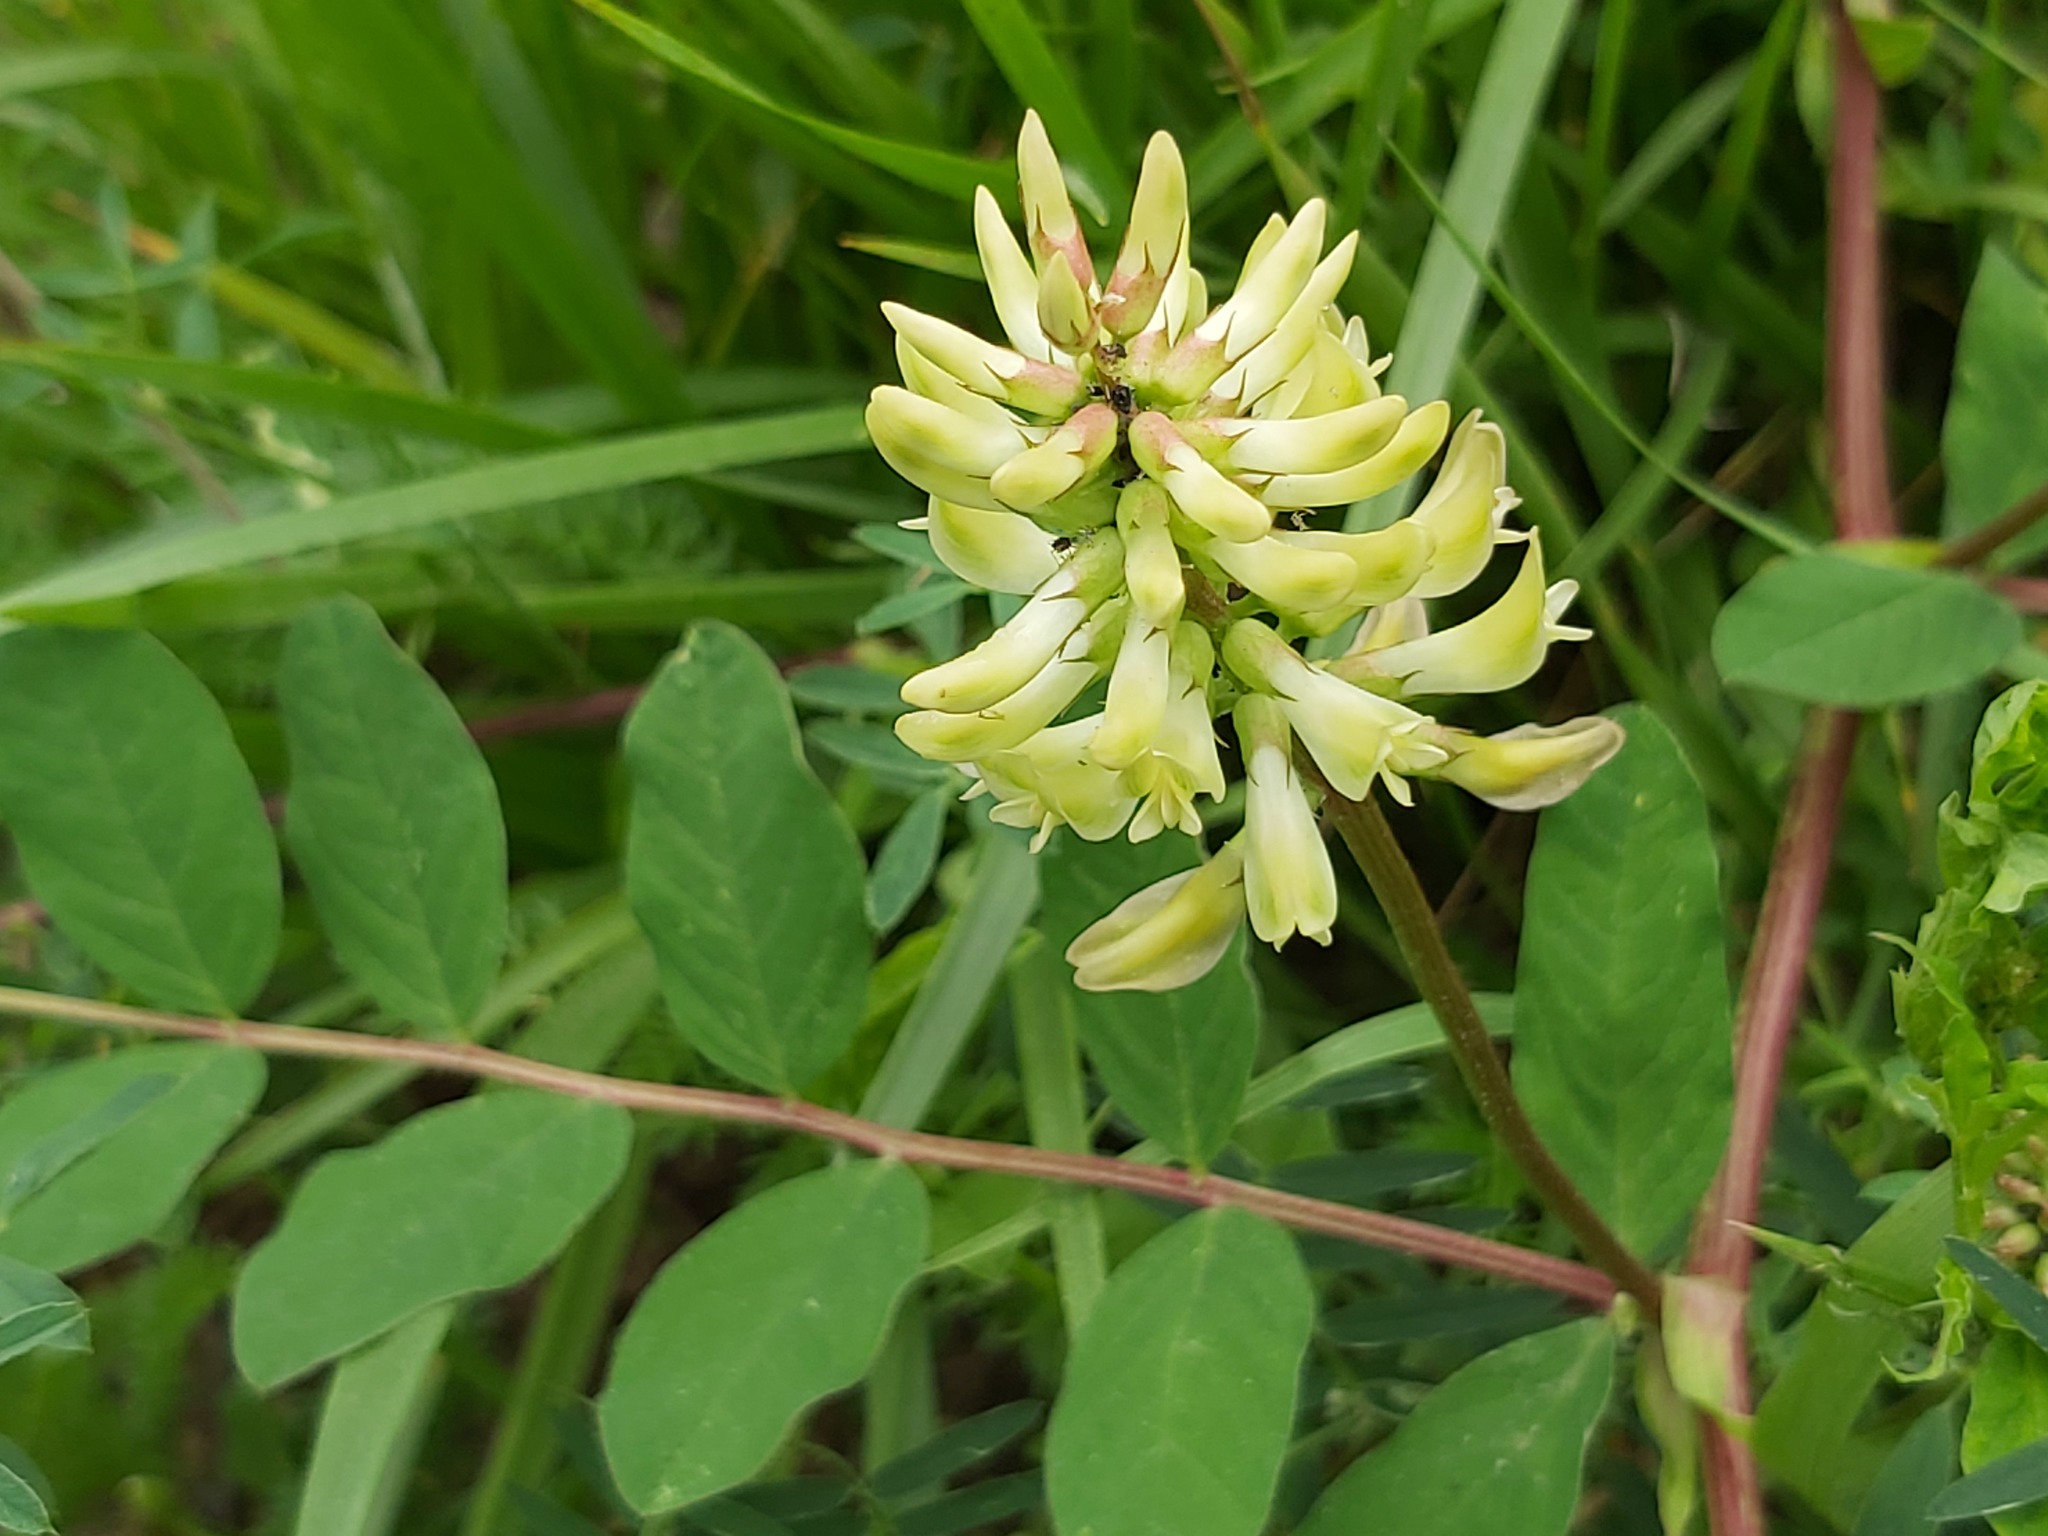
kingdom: Plantae
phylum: Tracheophyta
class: Magnoliopsida
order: Fabales
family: Fabaceae
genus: Astragalus
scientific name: Astragalus glycyphyllos
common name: Wild liquorice
